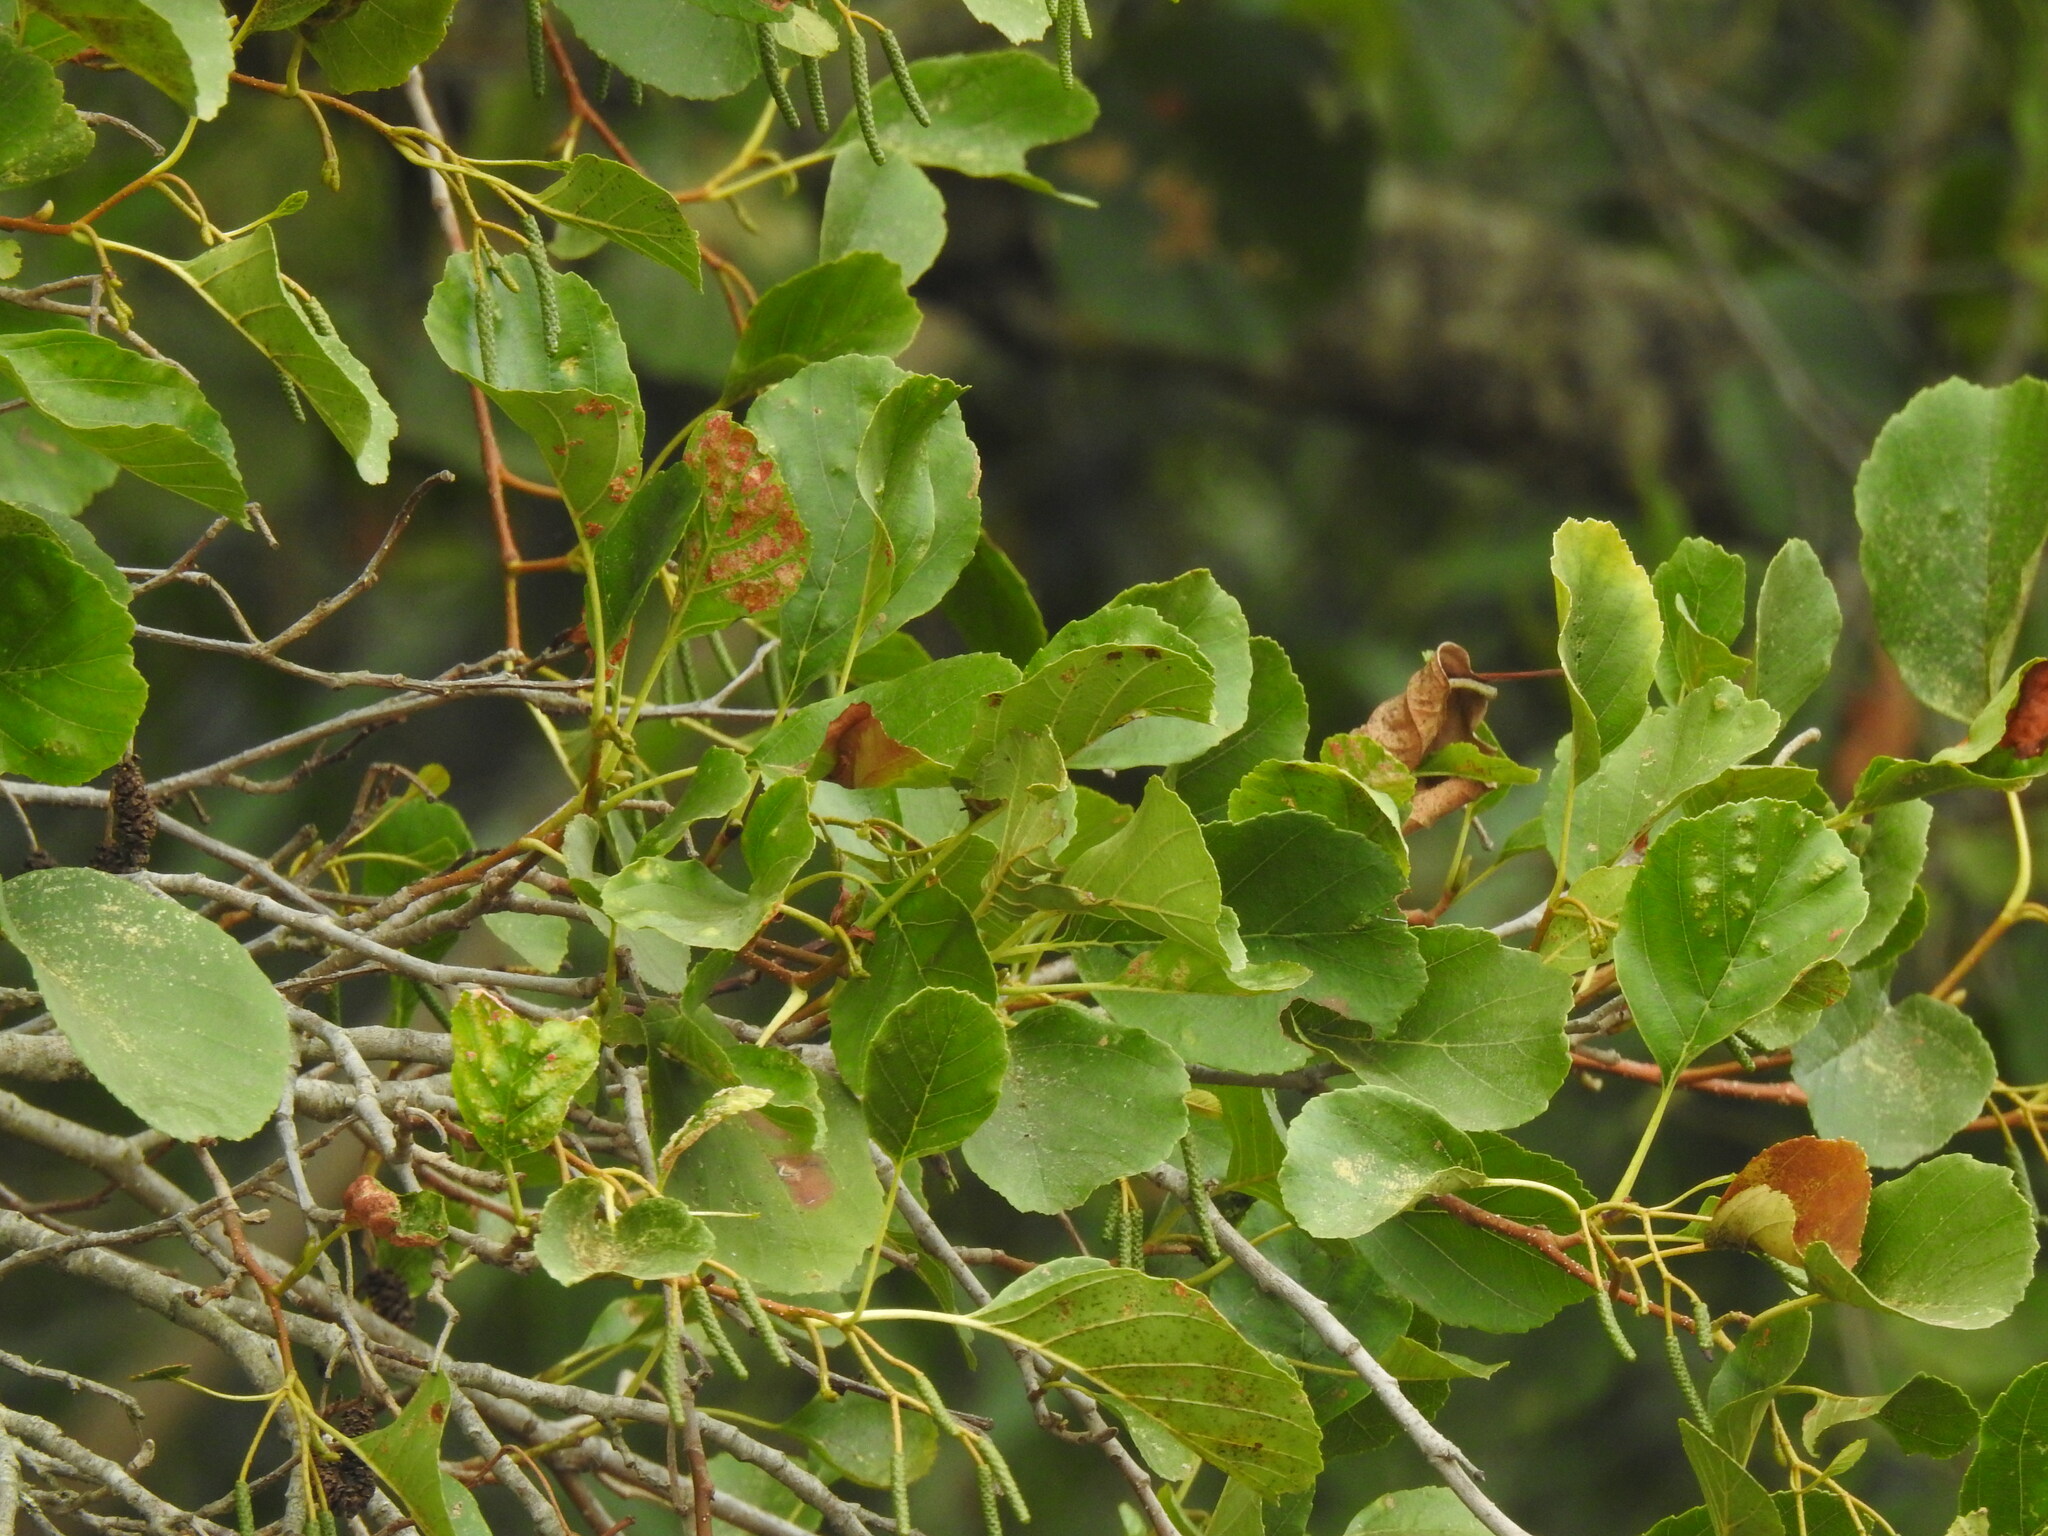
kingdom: Plantae
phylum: Tracheophyta
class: Magnoliopsida
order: Fagales
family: Betulaceae
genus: Alnus
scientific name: Alnus lusitanica
